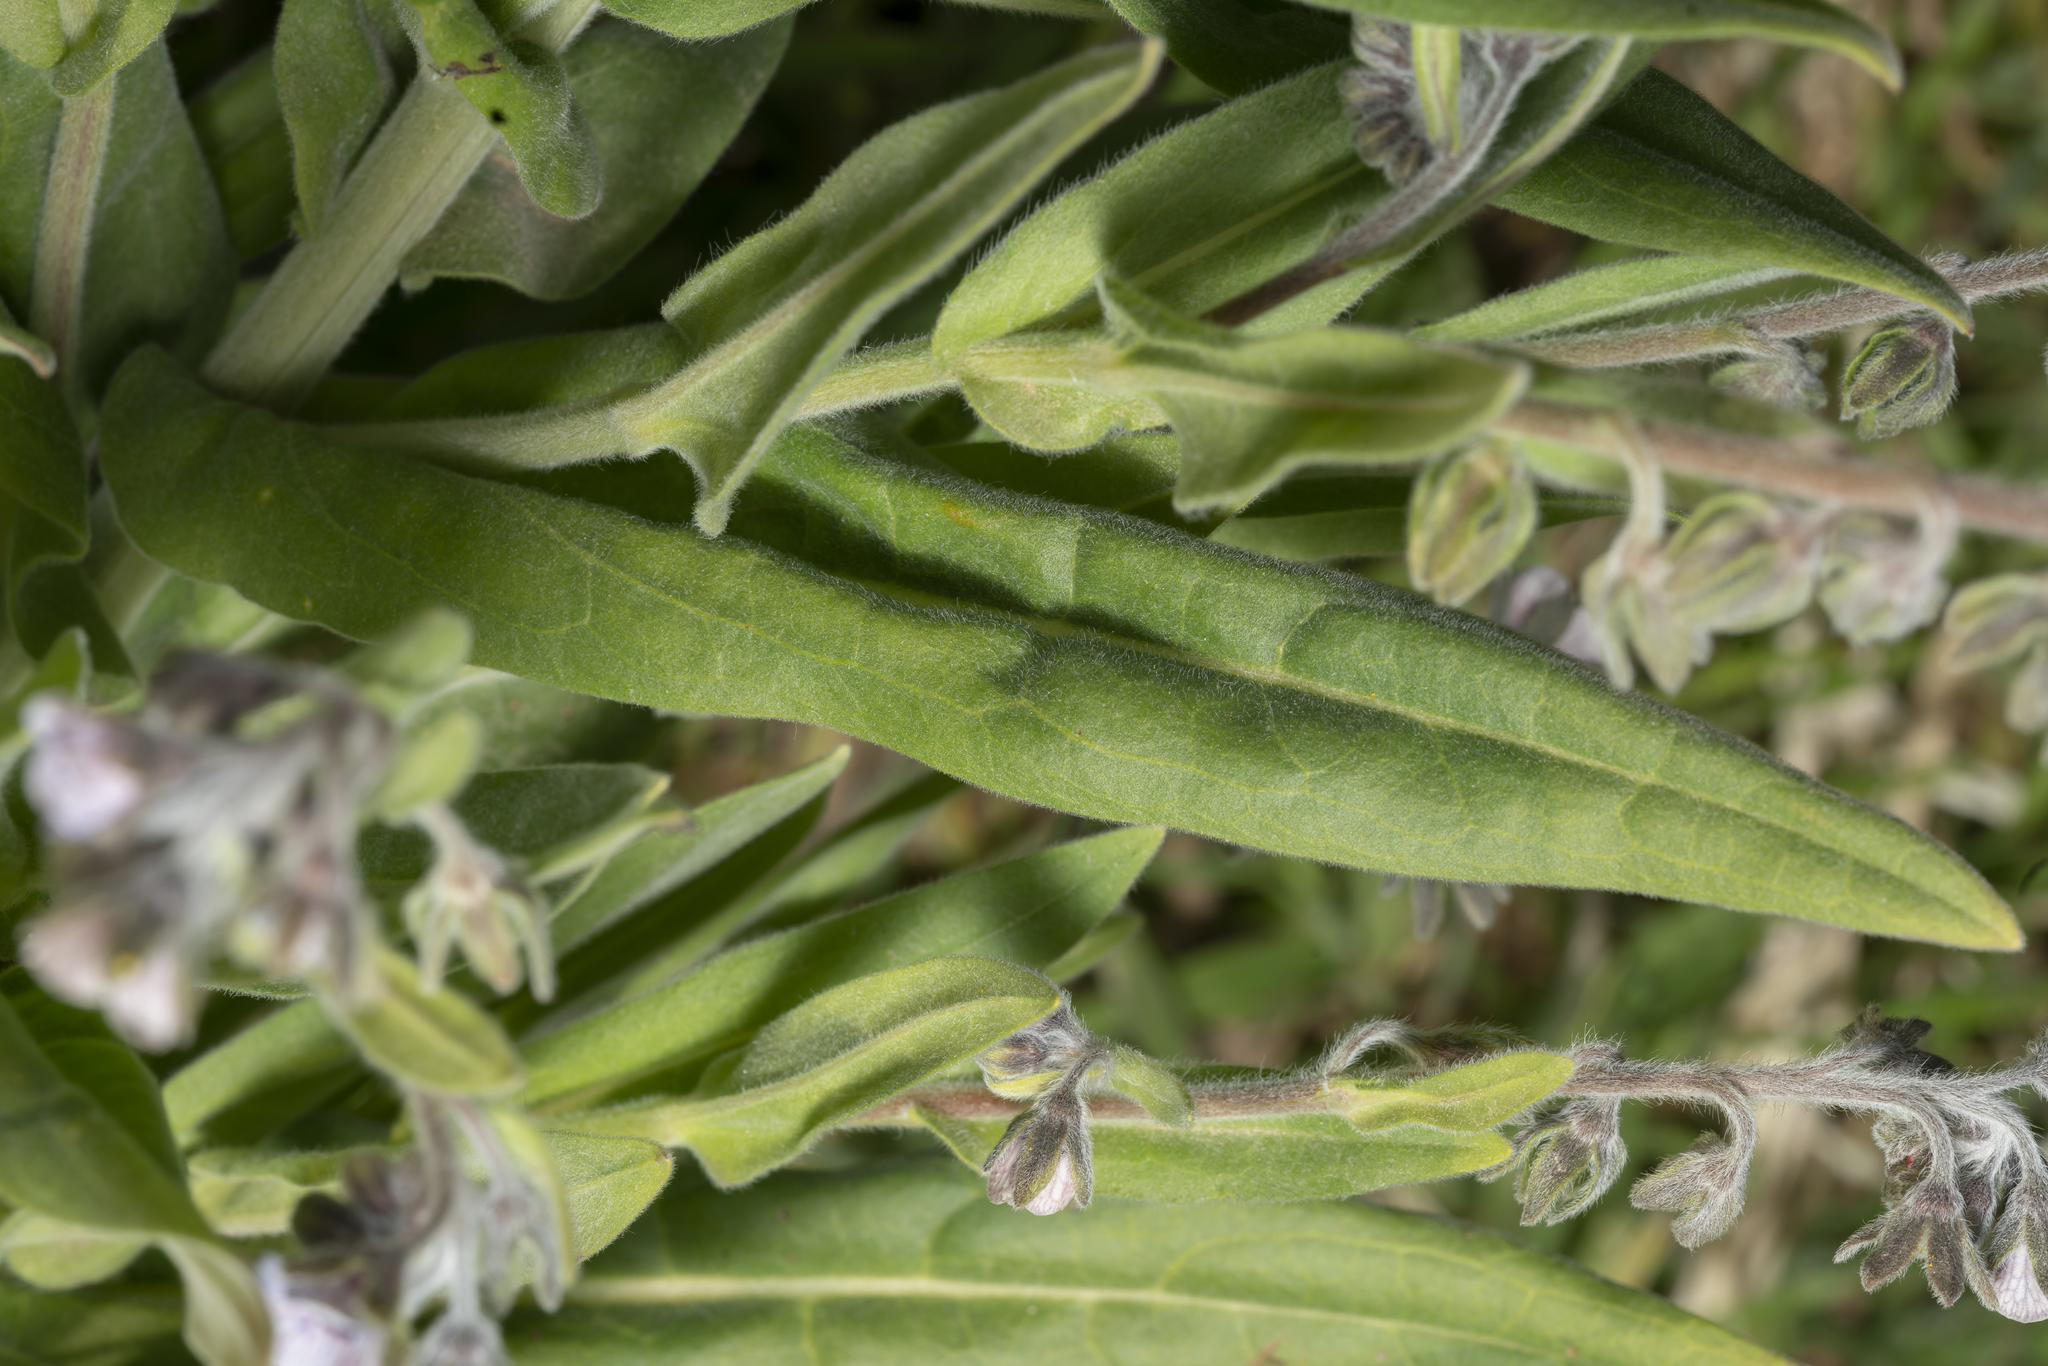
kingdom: Plantae
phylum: Tracheophyta
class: Magnoliopsida
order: Boraginales
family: Boraginaceae
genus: Cynoglossum
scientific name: Cynoglossum creticum
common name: Blue hound's tongue
